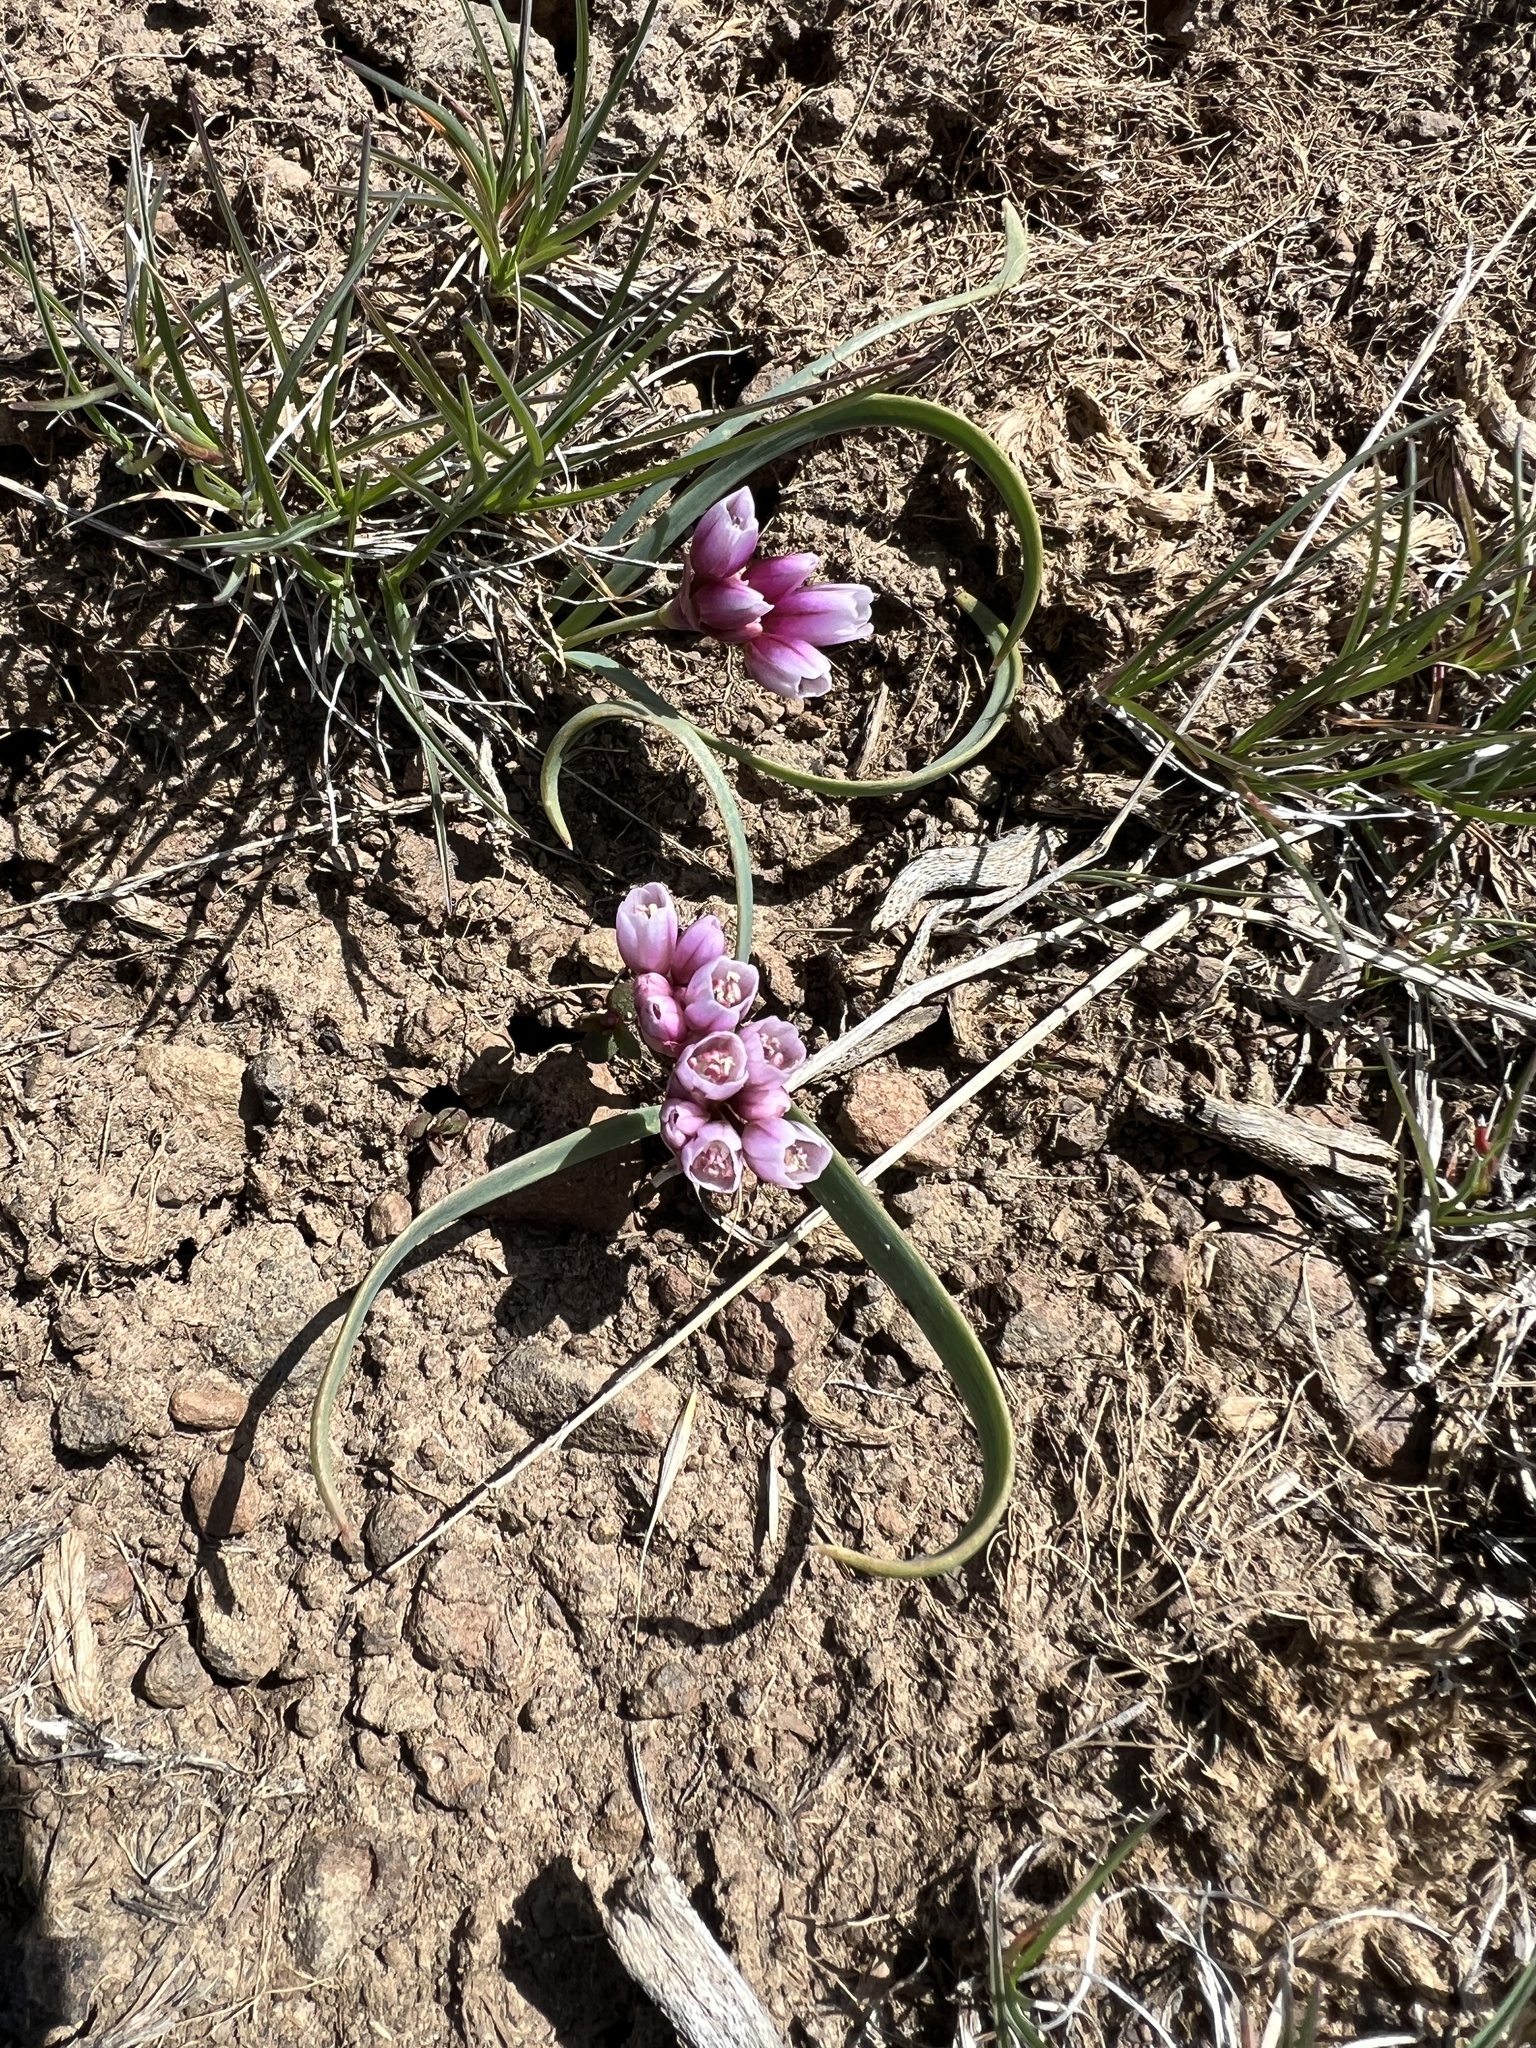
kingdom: Plantae
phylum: Tracheophyta
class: Liliopsida
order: Asparagales
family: Amaryllidaceae
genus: Allium
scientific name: Allium scilloides
